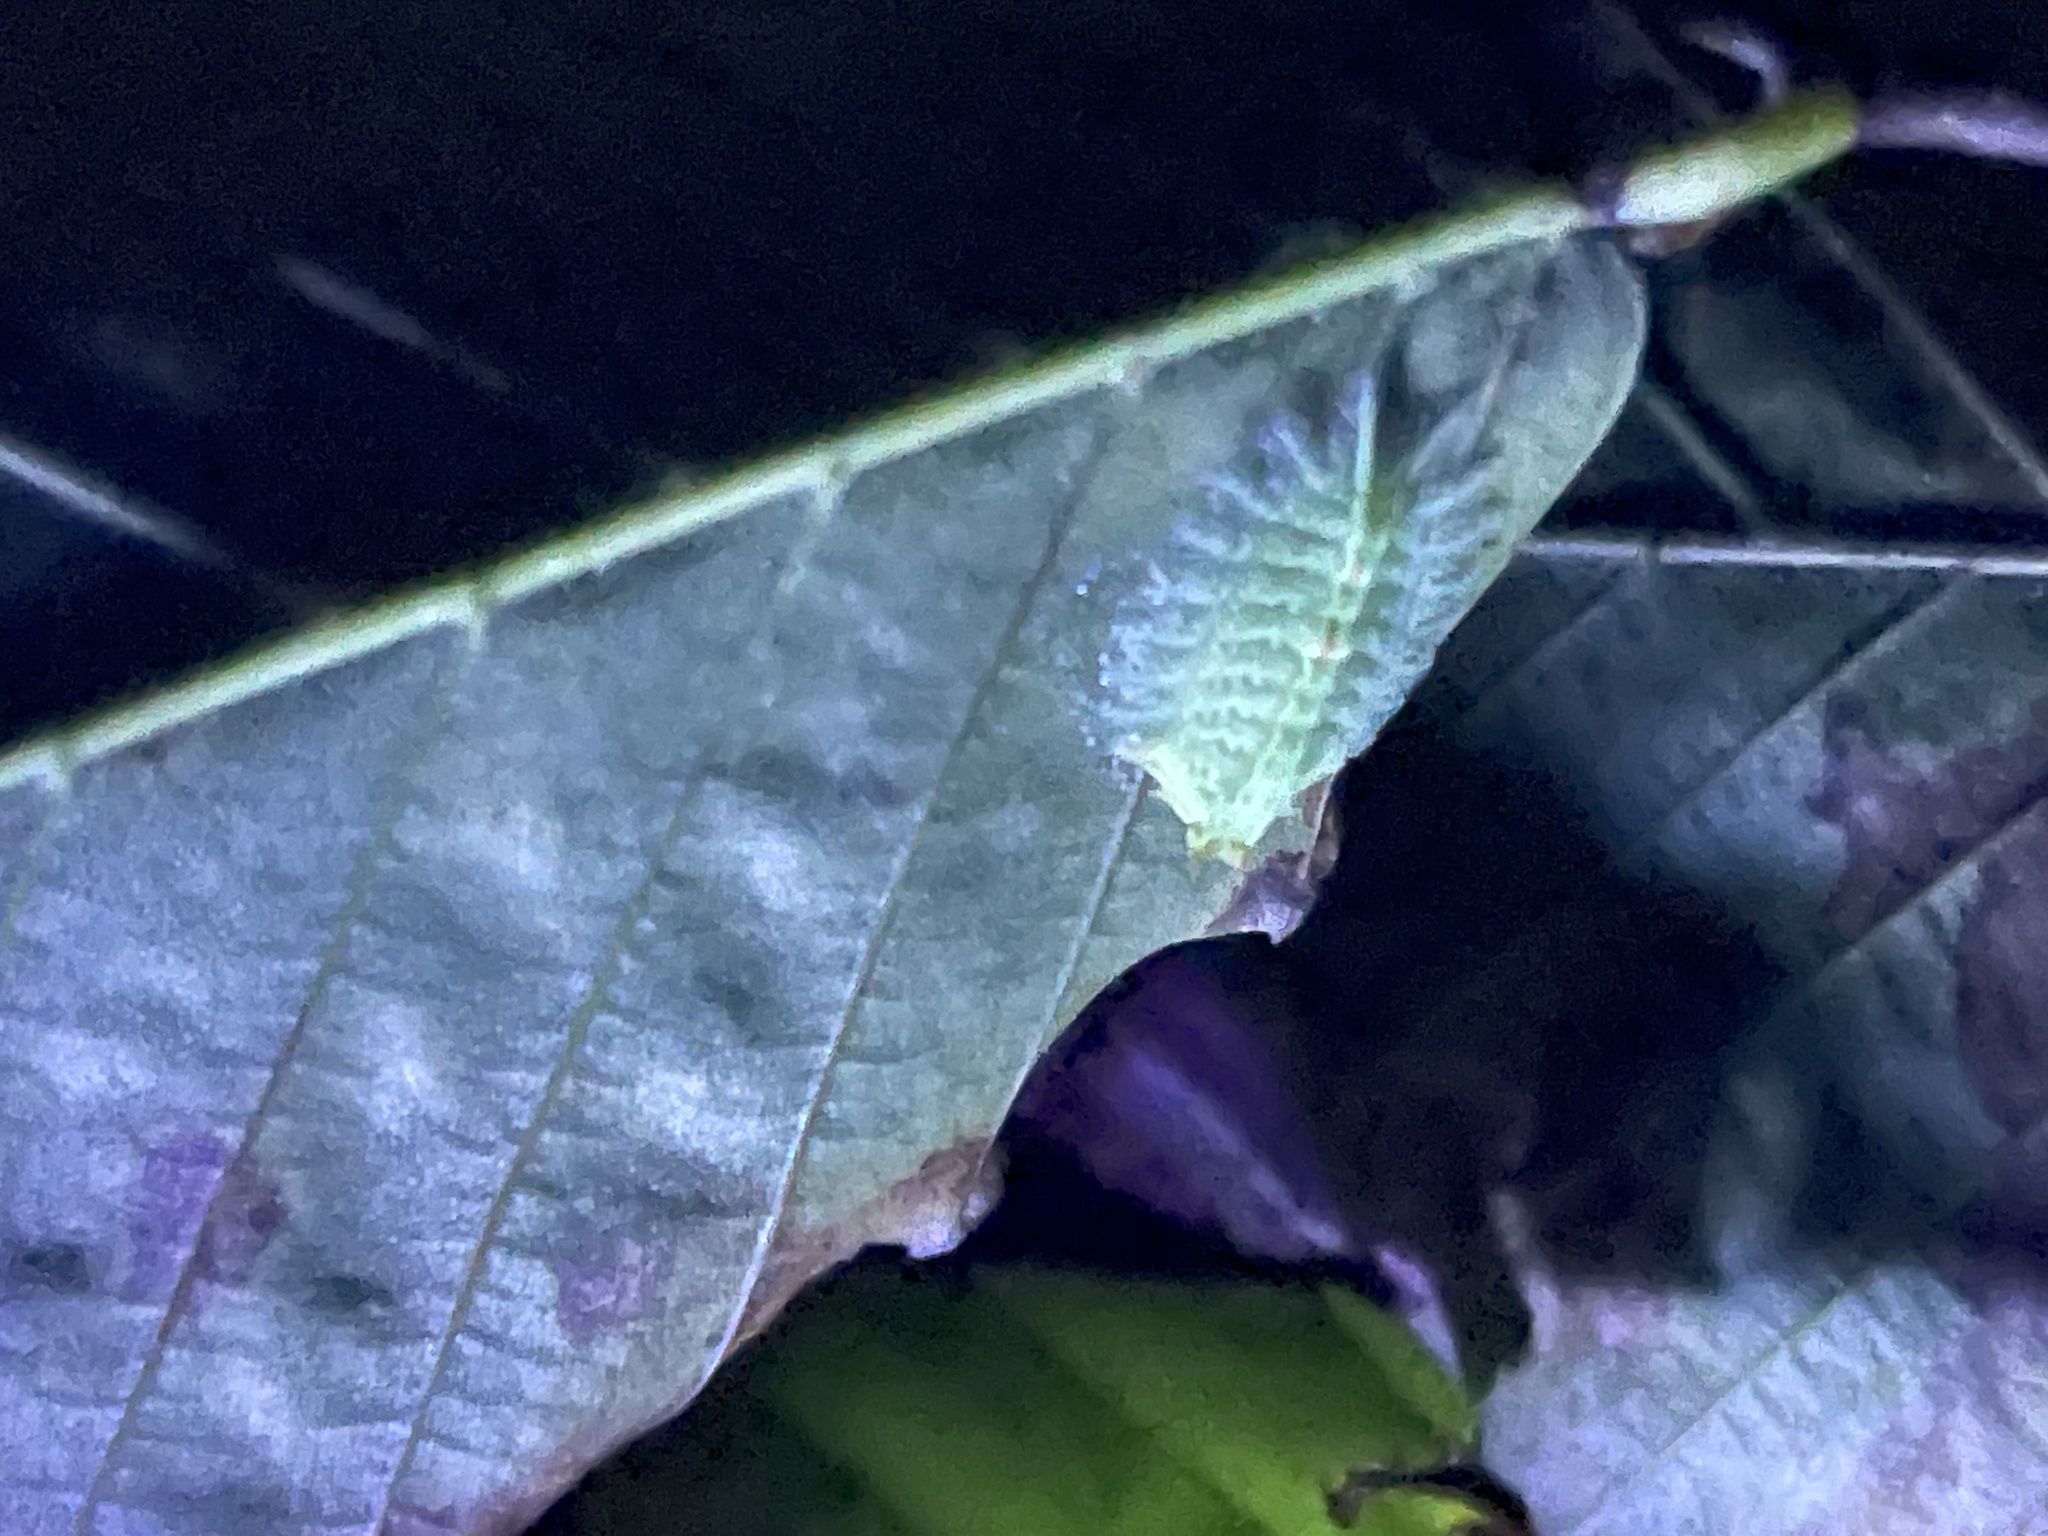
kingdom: Animalia
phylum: Arthropoda
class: Insecta
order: Lepidoptera
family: Limacodidae
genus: Isa
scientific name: Isa textula
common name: Crowned slug moth
